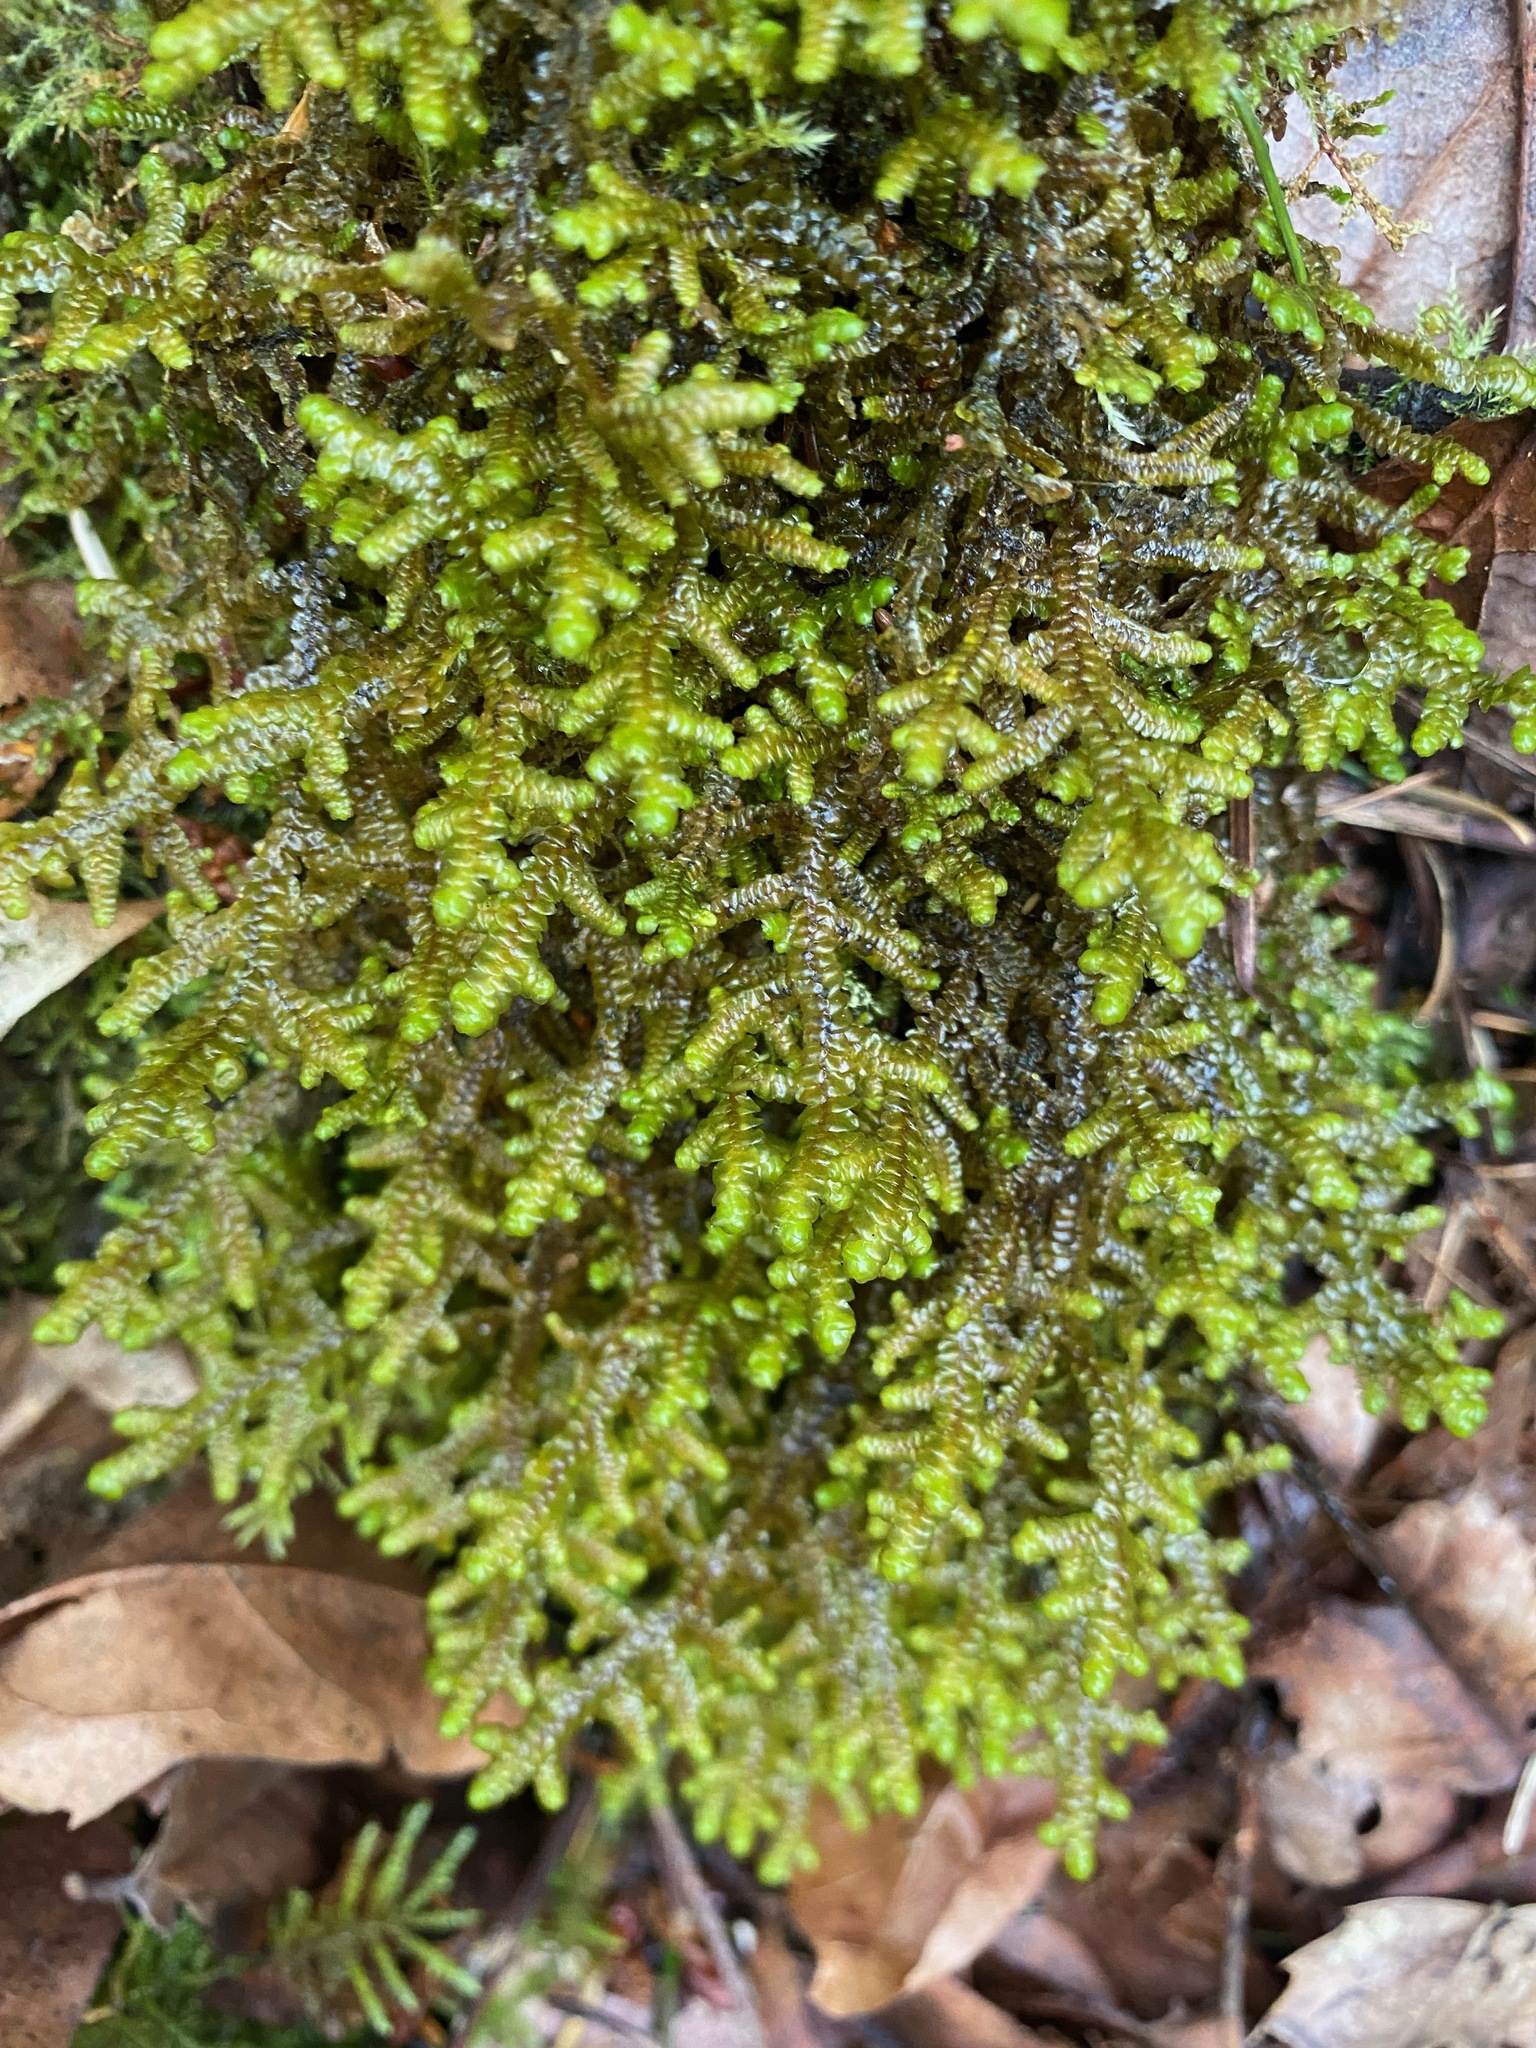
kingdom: Plantae
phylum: Marchantiophyta
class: Jungermanniopsida
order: Porellales
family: Porellaceae
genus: Porella
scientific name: Porella navicularis
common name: Tree ruffle liverwort
